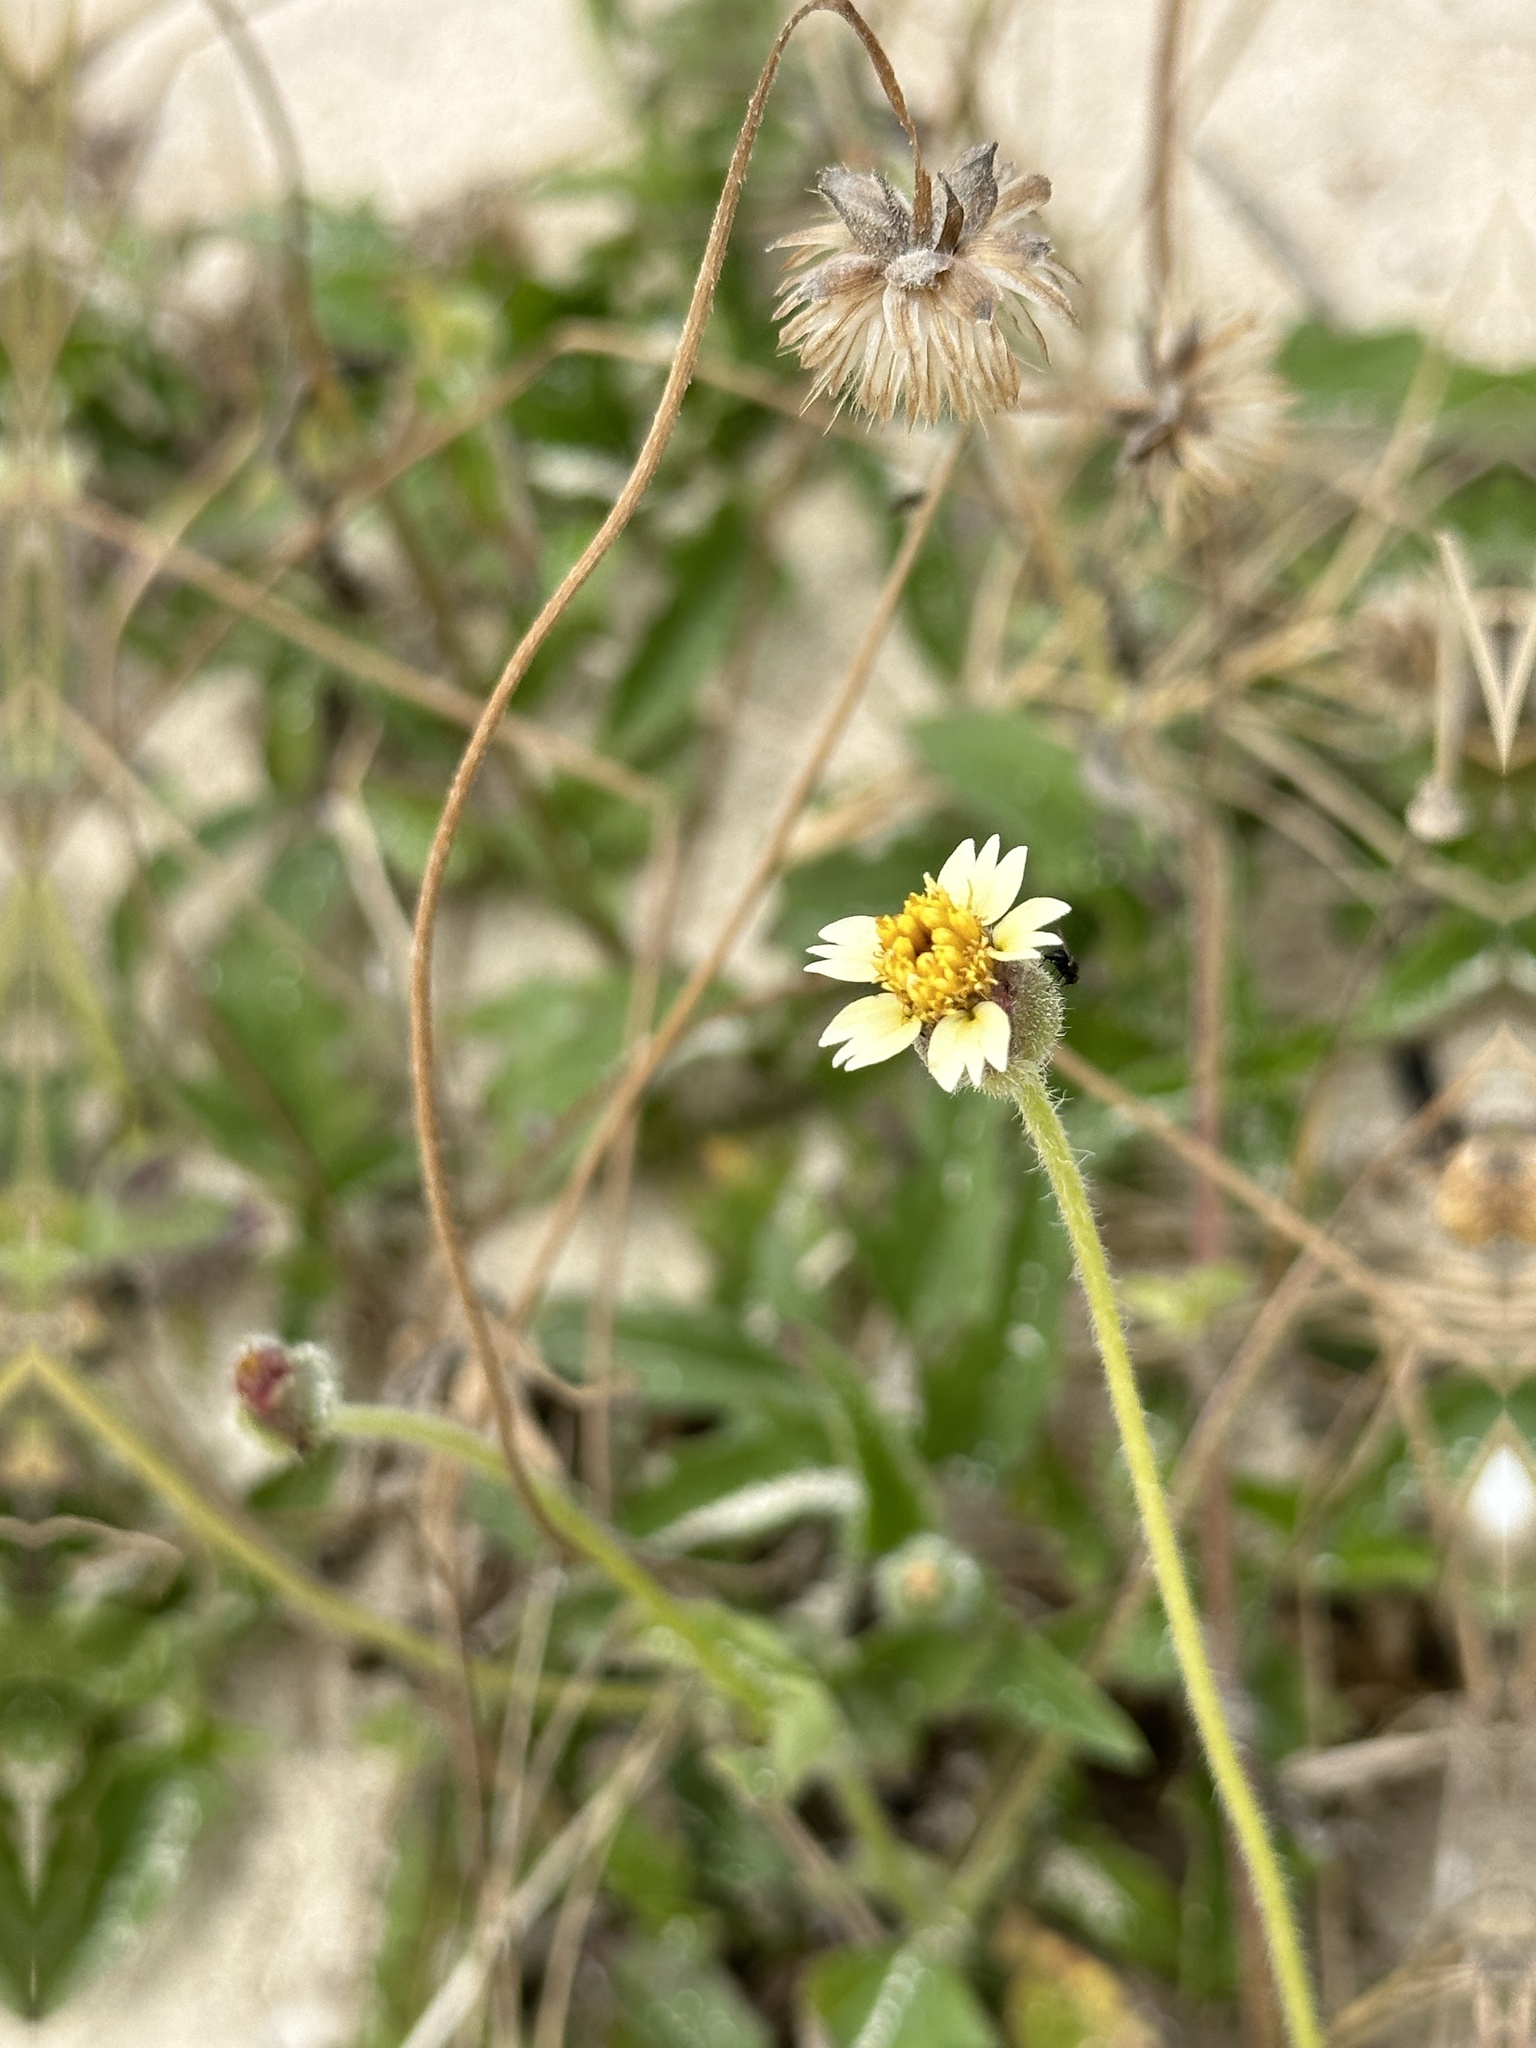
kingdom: Plantae
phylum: Tracheophyta
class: Magnoliopsida
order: Asterales
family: Asteraceae
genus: Tridax
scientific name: Tridax procumbens
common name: Coatbuttons
